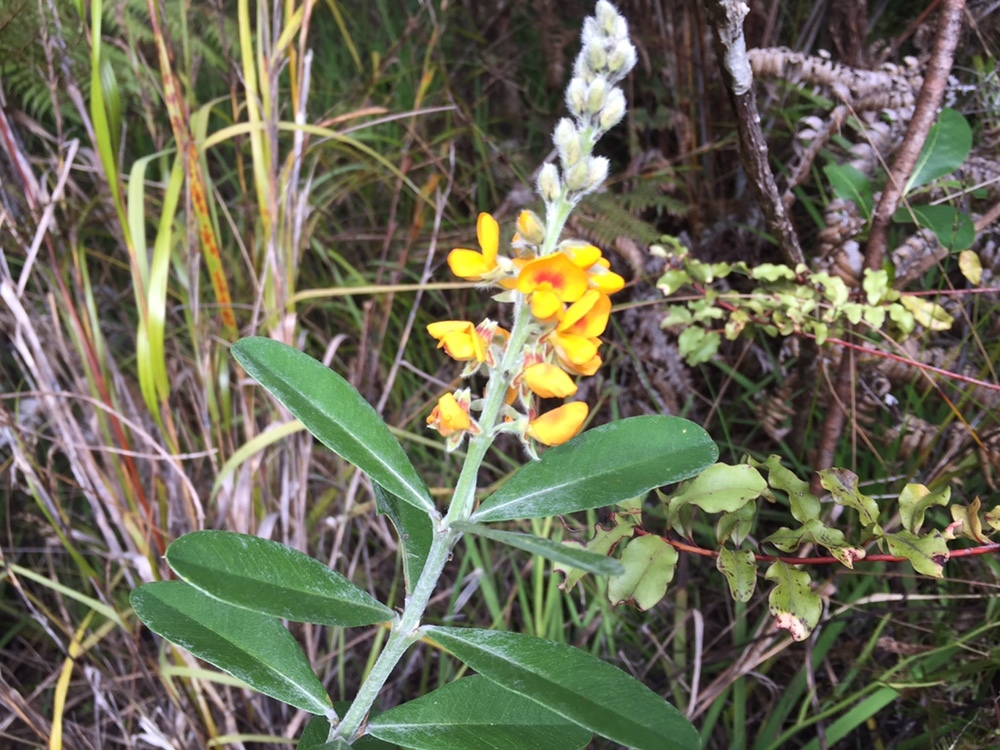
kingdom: Plantae
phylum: Tracheophyta
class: Magnoliopsida
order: Fabales
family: Fabaceae
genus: Callistachys
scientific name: Callistachys lanceolata
